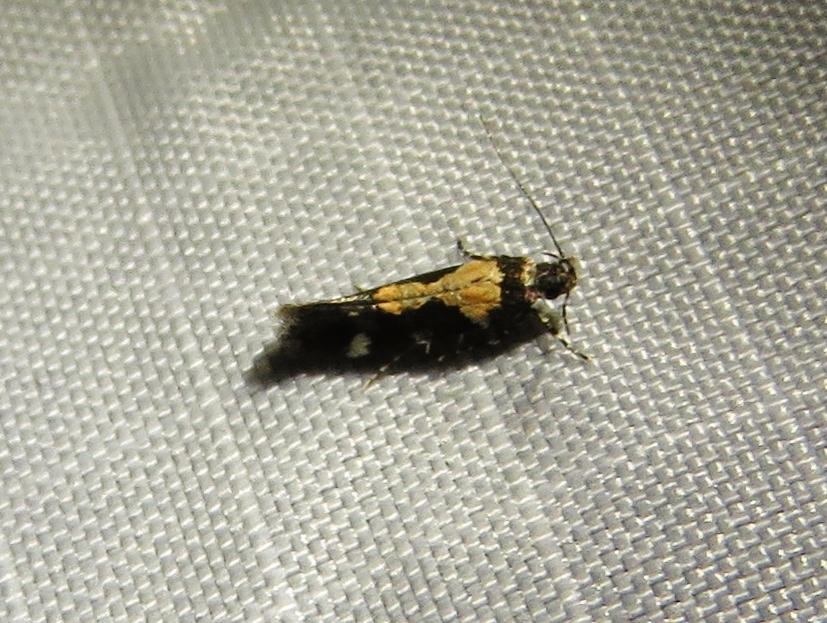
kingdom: Animalia
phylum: Arthropoda
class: Insecta
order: Lepidoptera
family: Gelechiidae
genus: Stegasta
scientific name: Stegasta bosqueella
